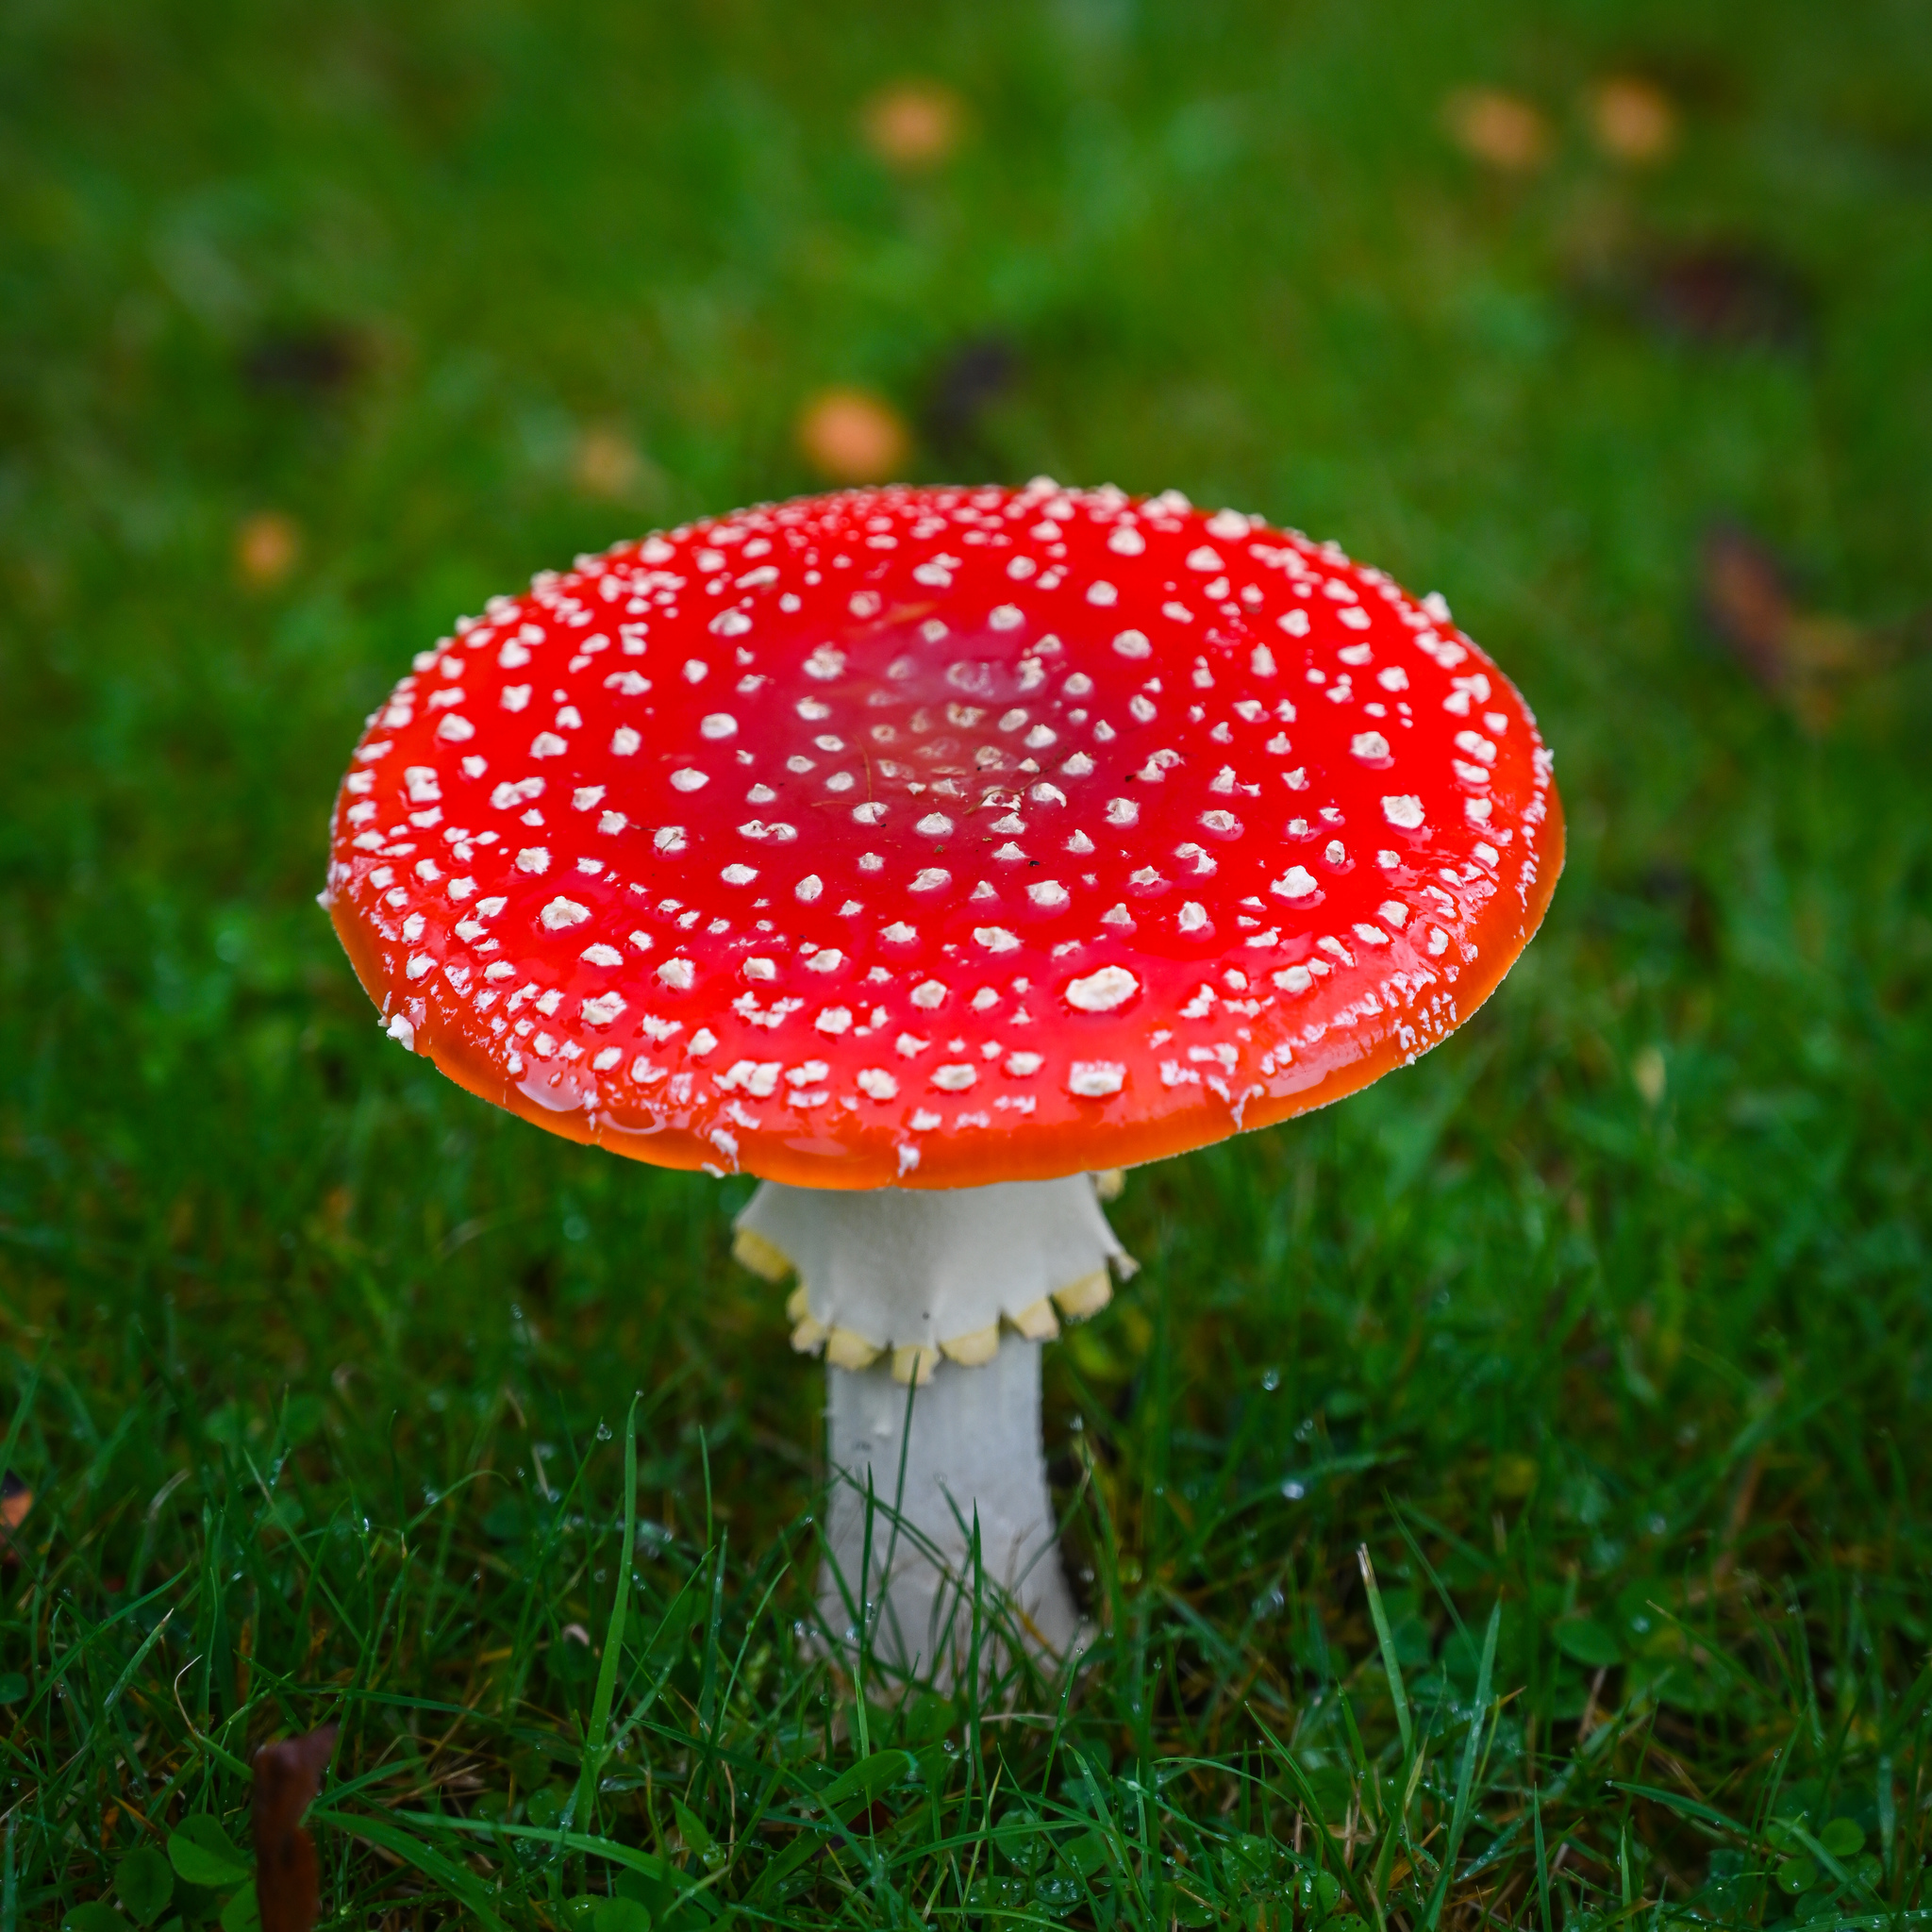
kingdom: Fungi
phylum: Basidiomycota
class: Agaricomycetes
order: Agaricales
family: Amanitaceae
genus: Amanita
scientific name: Amanita muscaria
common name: Fly agaric
